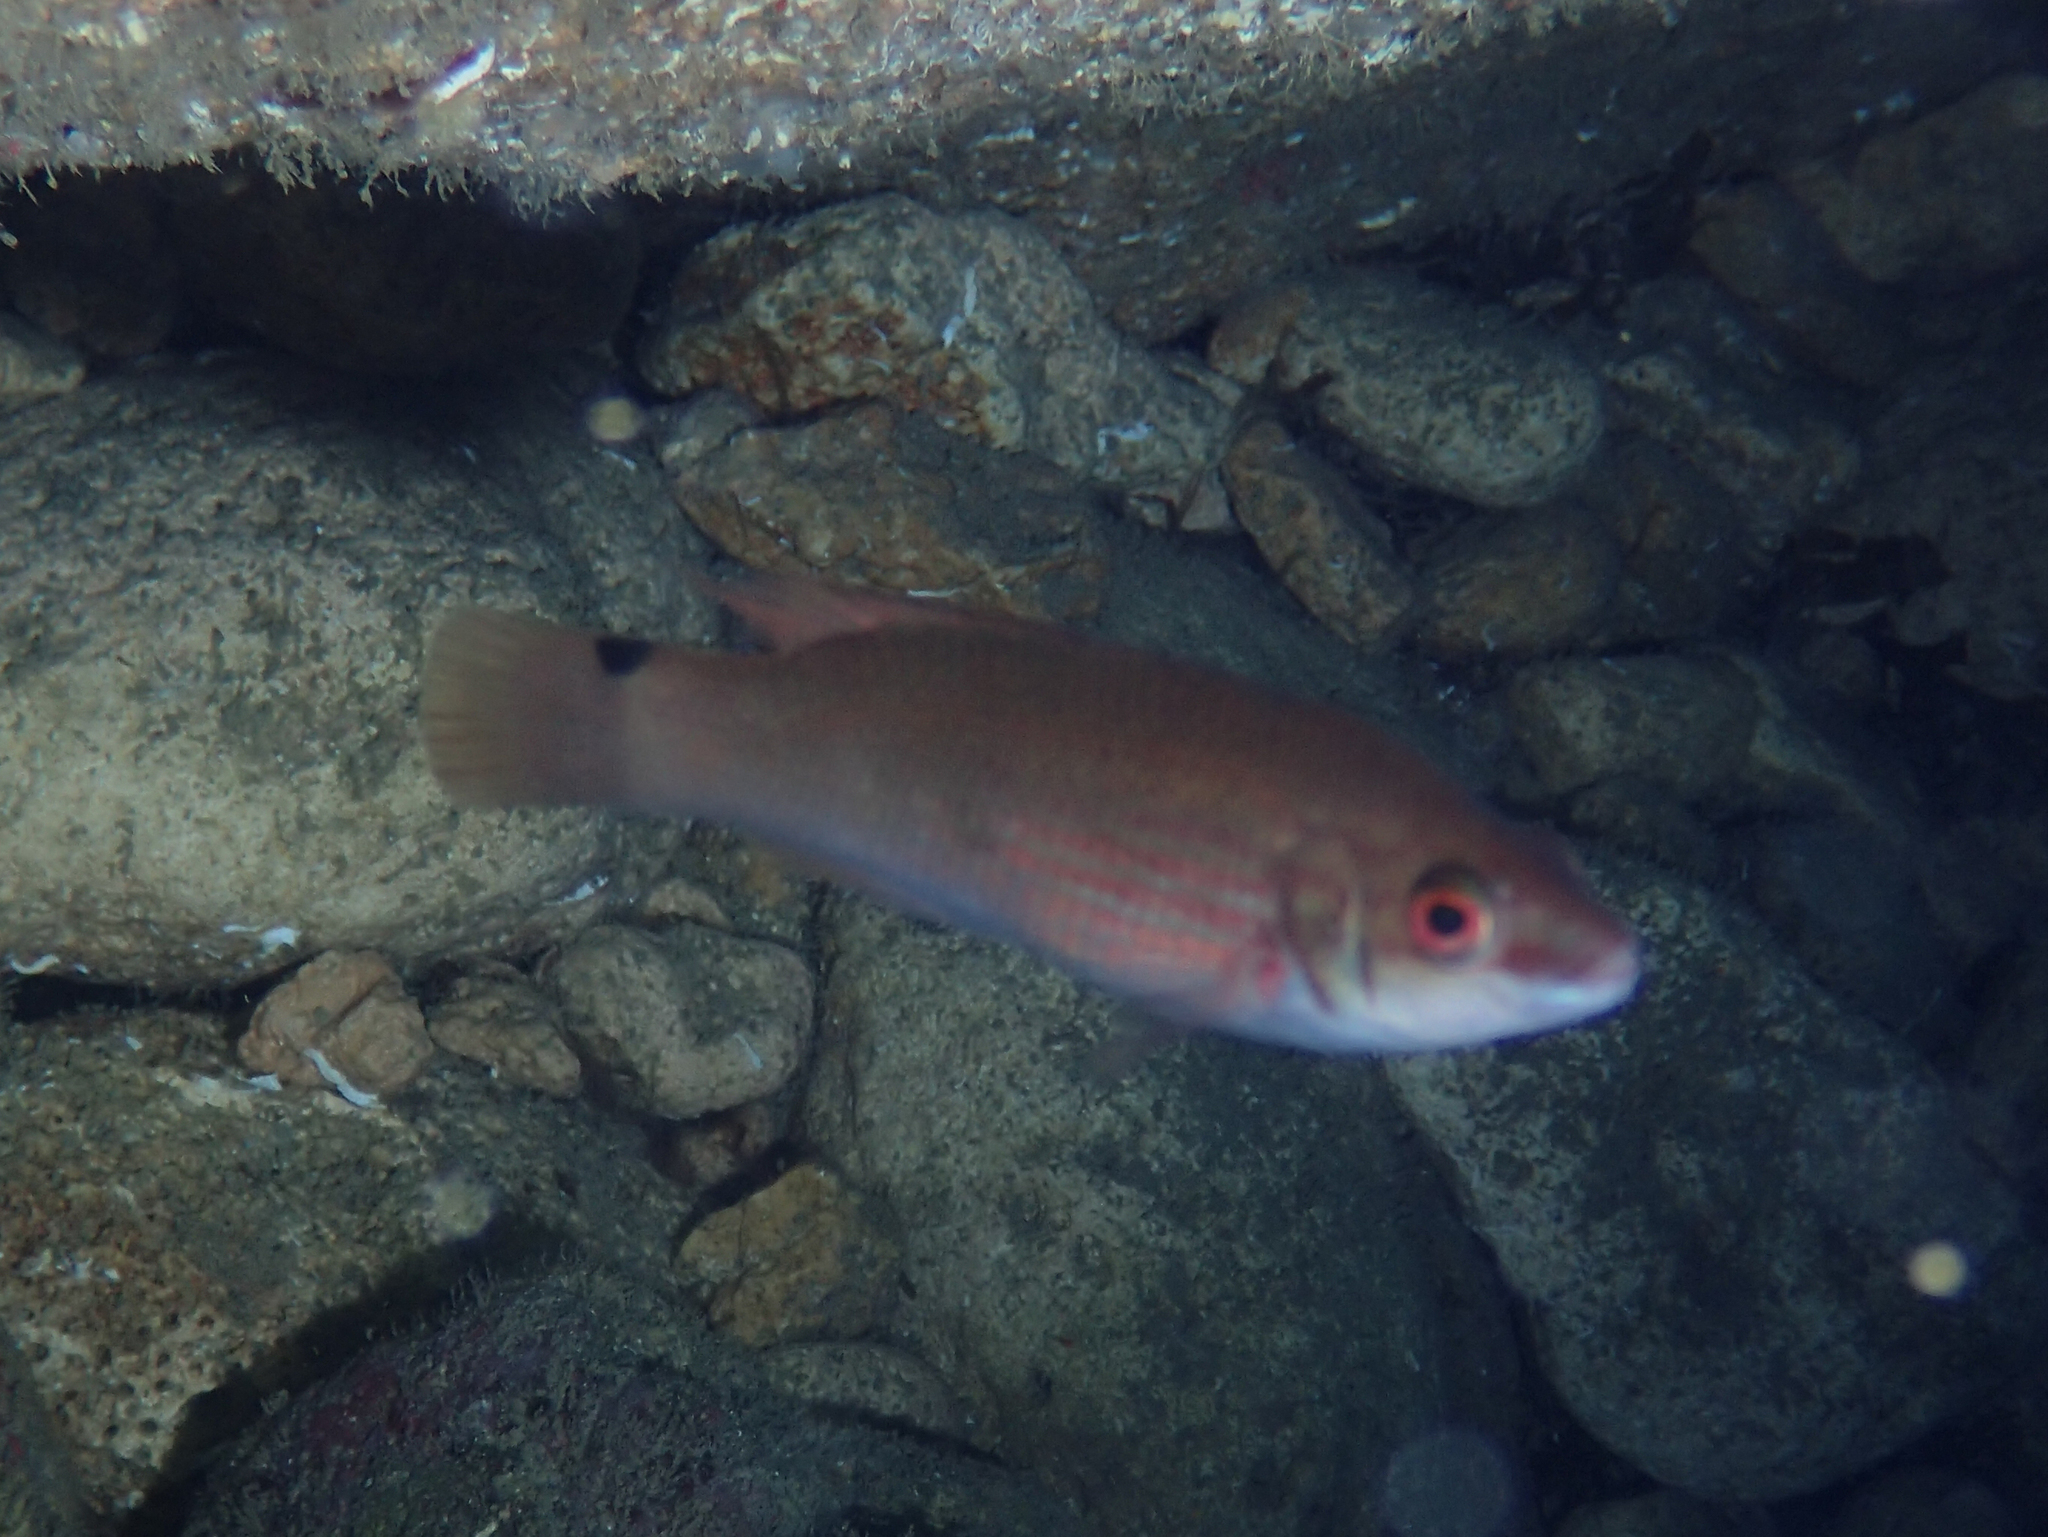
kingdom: Animalia
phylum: Chordata
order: Perciformes
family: Labridae
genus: Ctenolabrus
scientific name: Ctenolabrus rupestris
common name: Goldsinny
